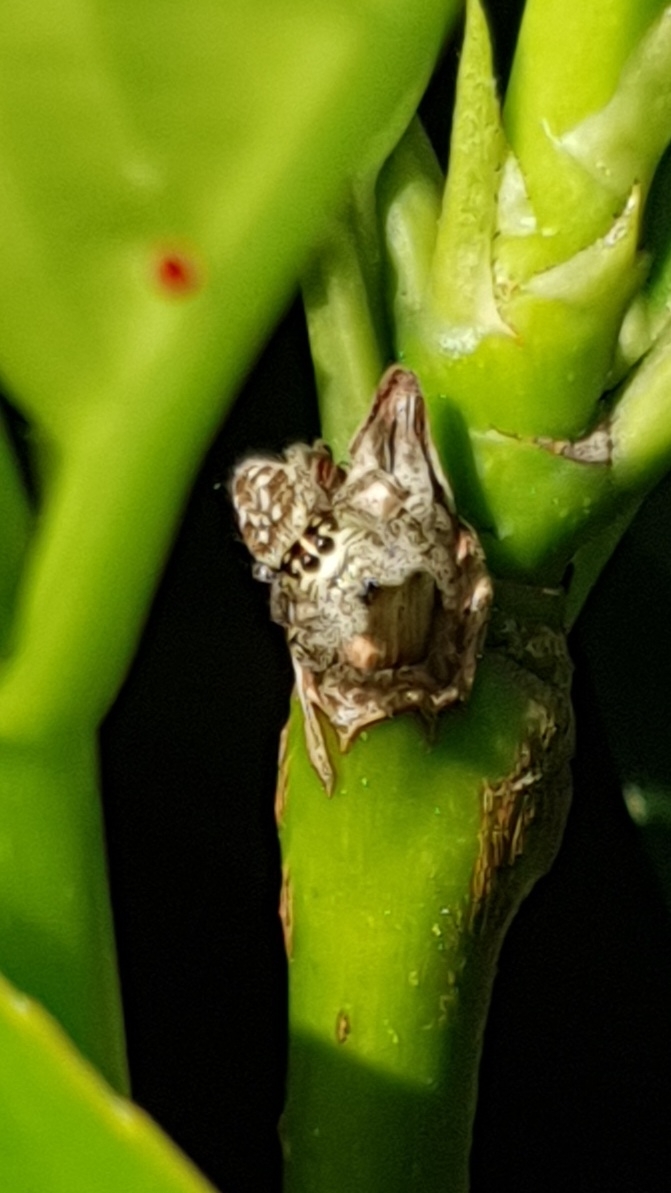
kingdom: Animalia
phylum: Arthropoda
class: Arachnida
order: Araneae
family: Salticidae
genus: Macaroeris
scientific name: Macaroeris nidicolens
